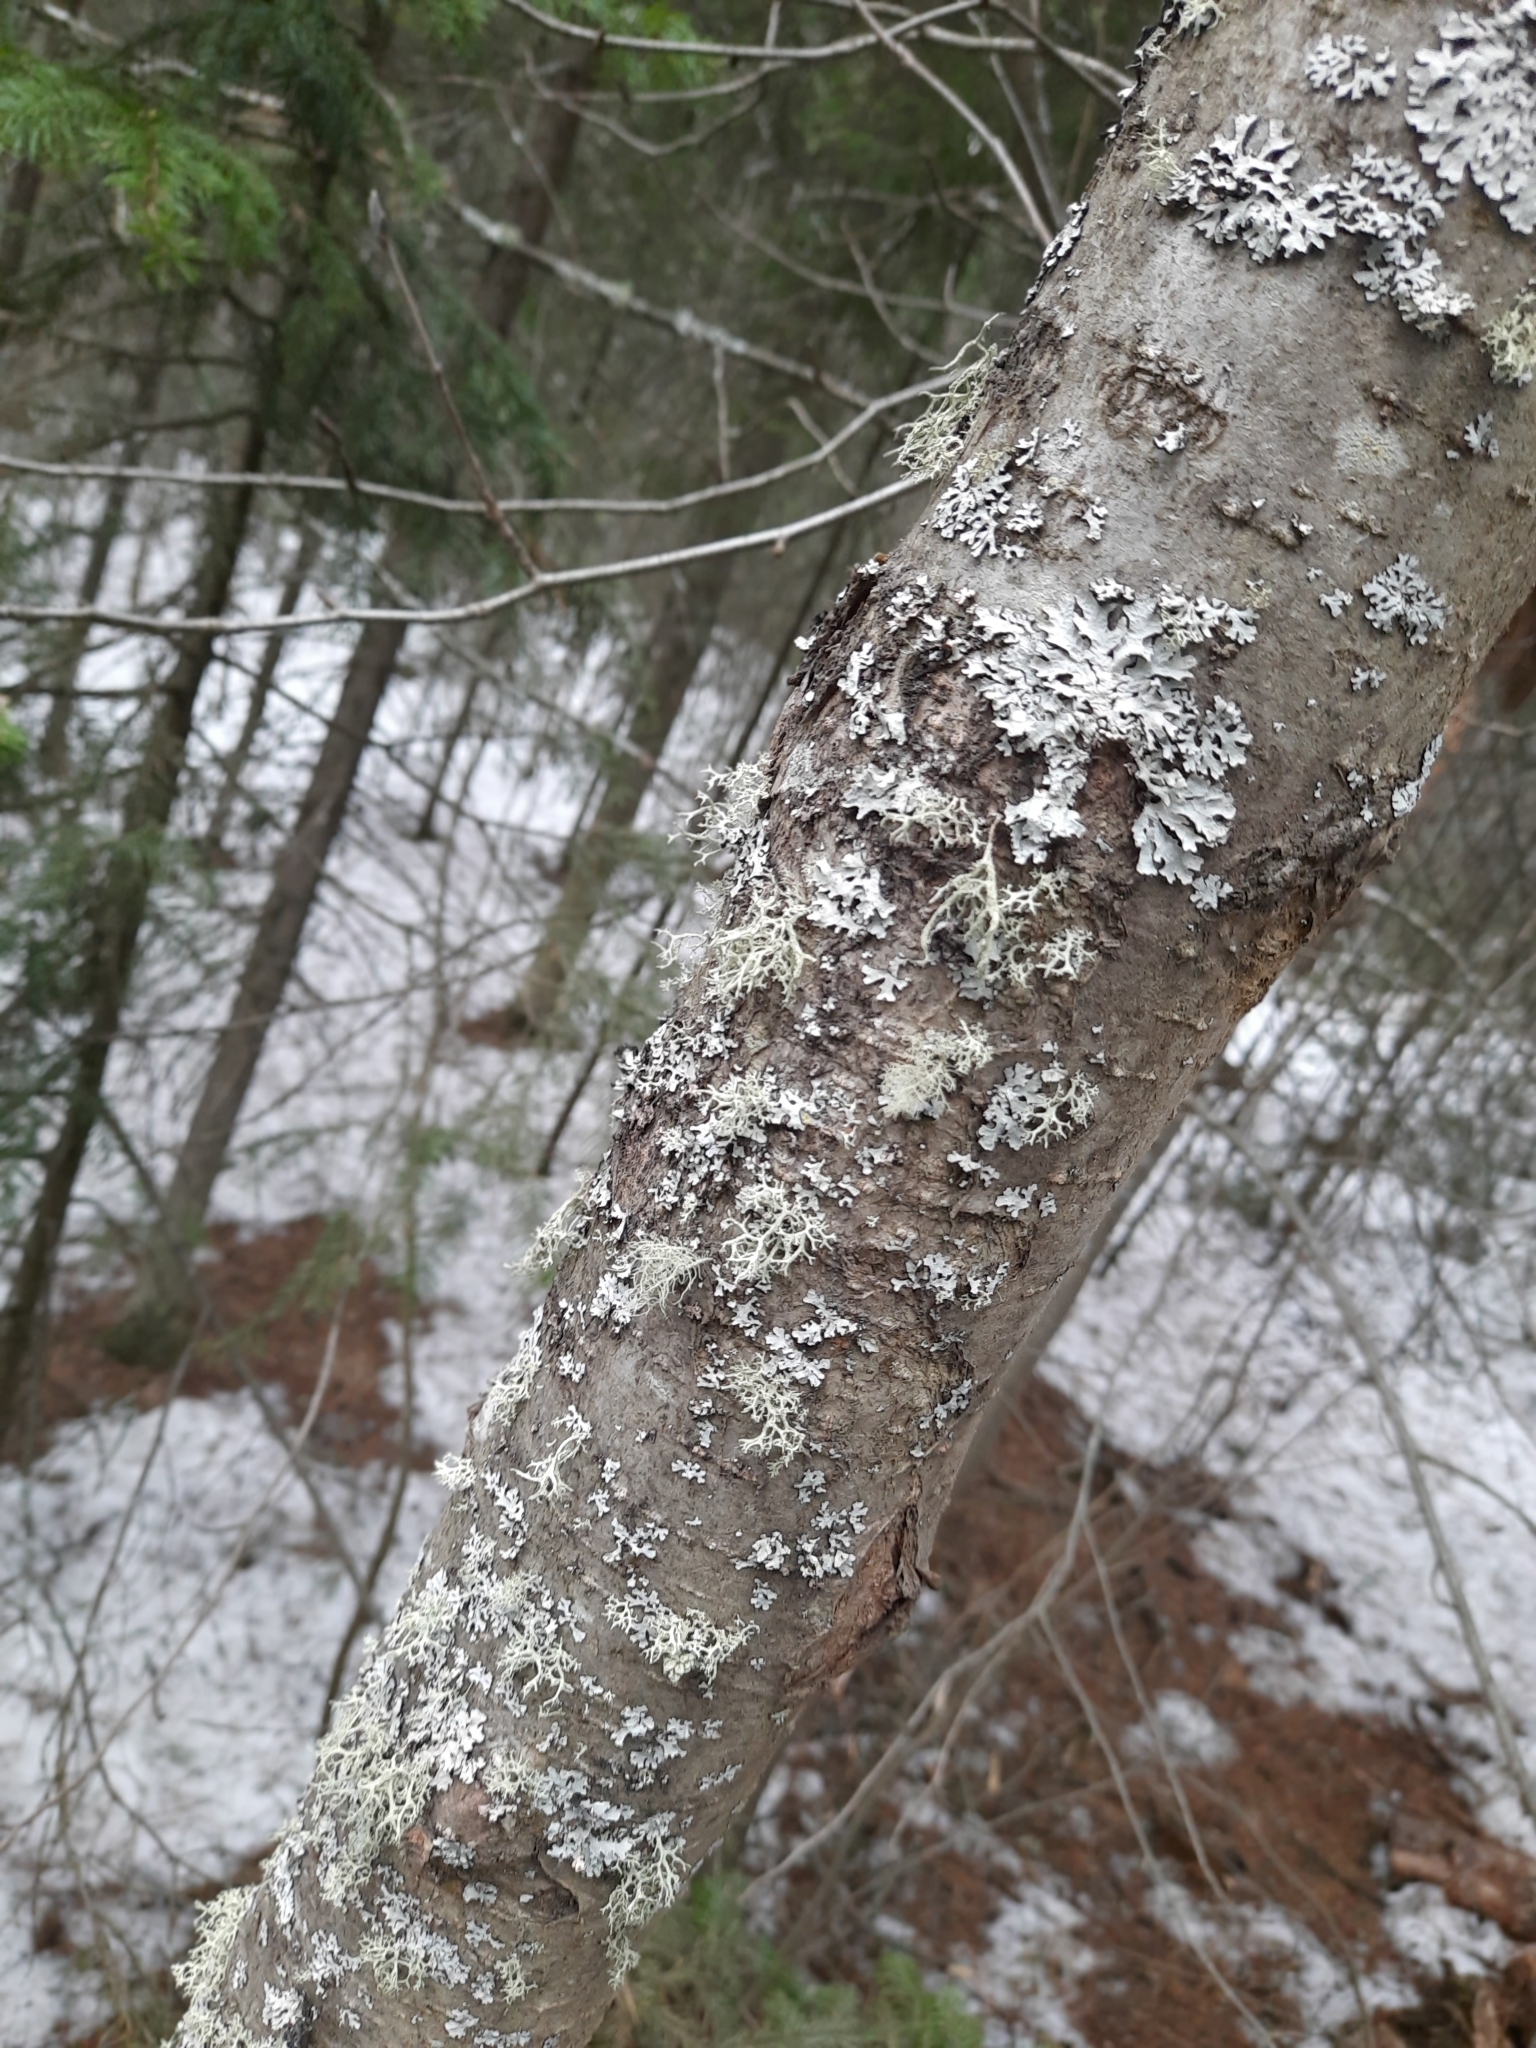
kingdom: Fungi
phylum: Ascomycota
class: Lecanoromycetes
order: Lecanorales
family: Parmeliaceae
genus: Hypogymnia
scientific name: Hypogymnia physodes
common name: Dark crottle
